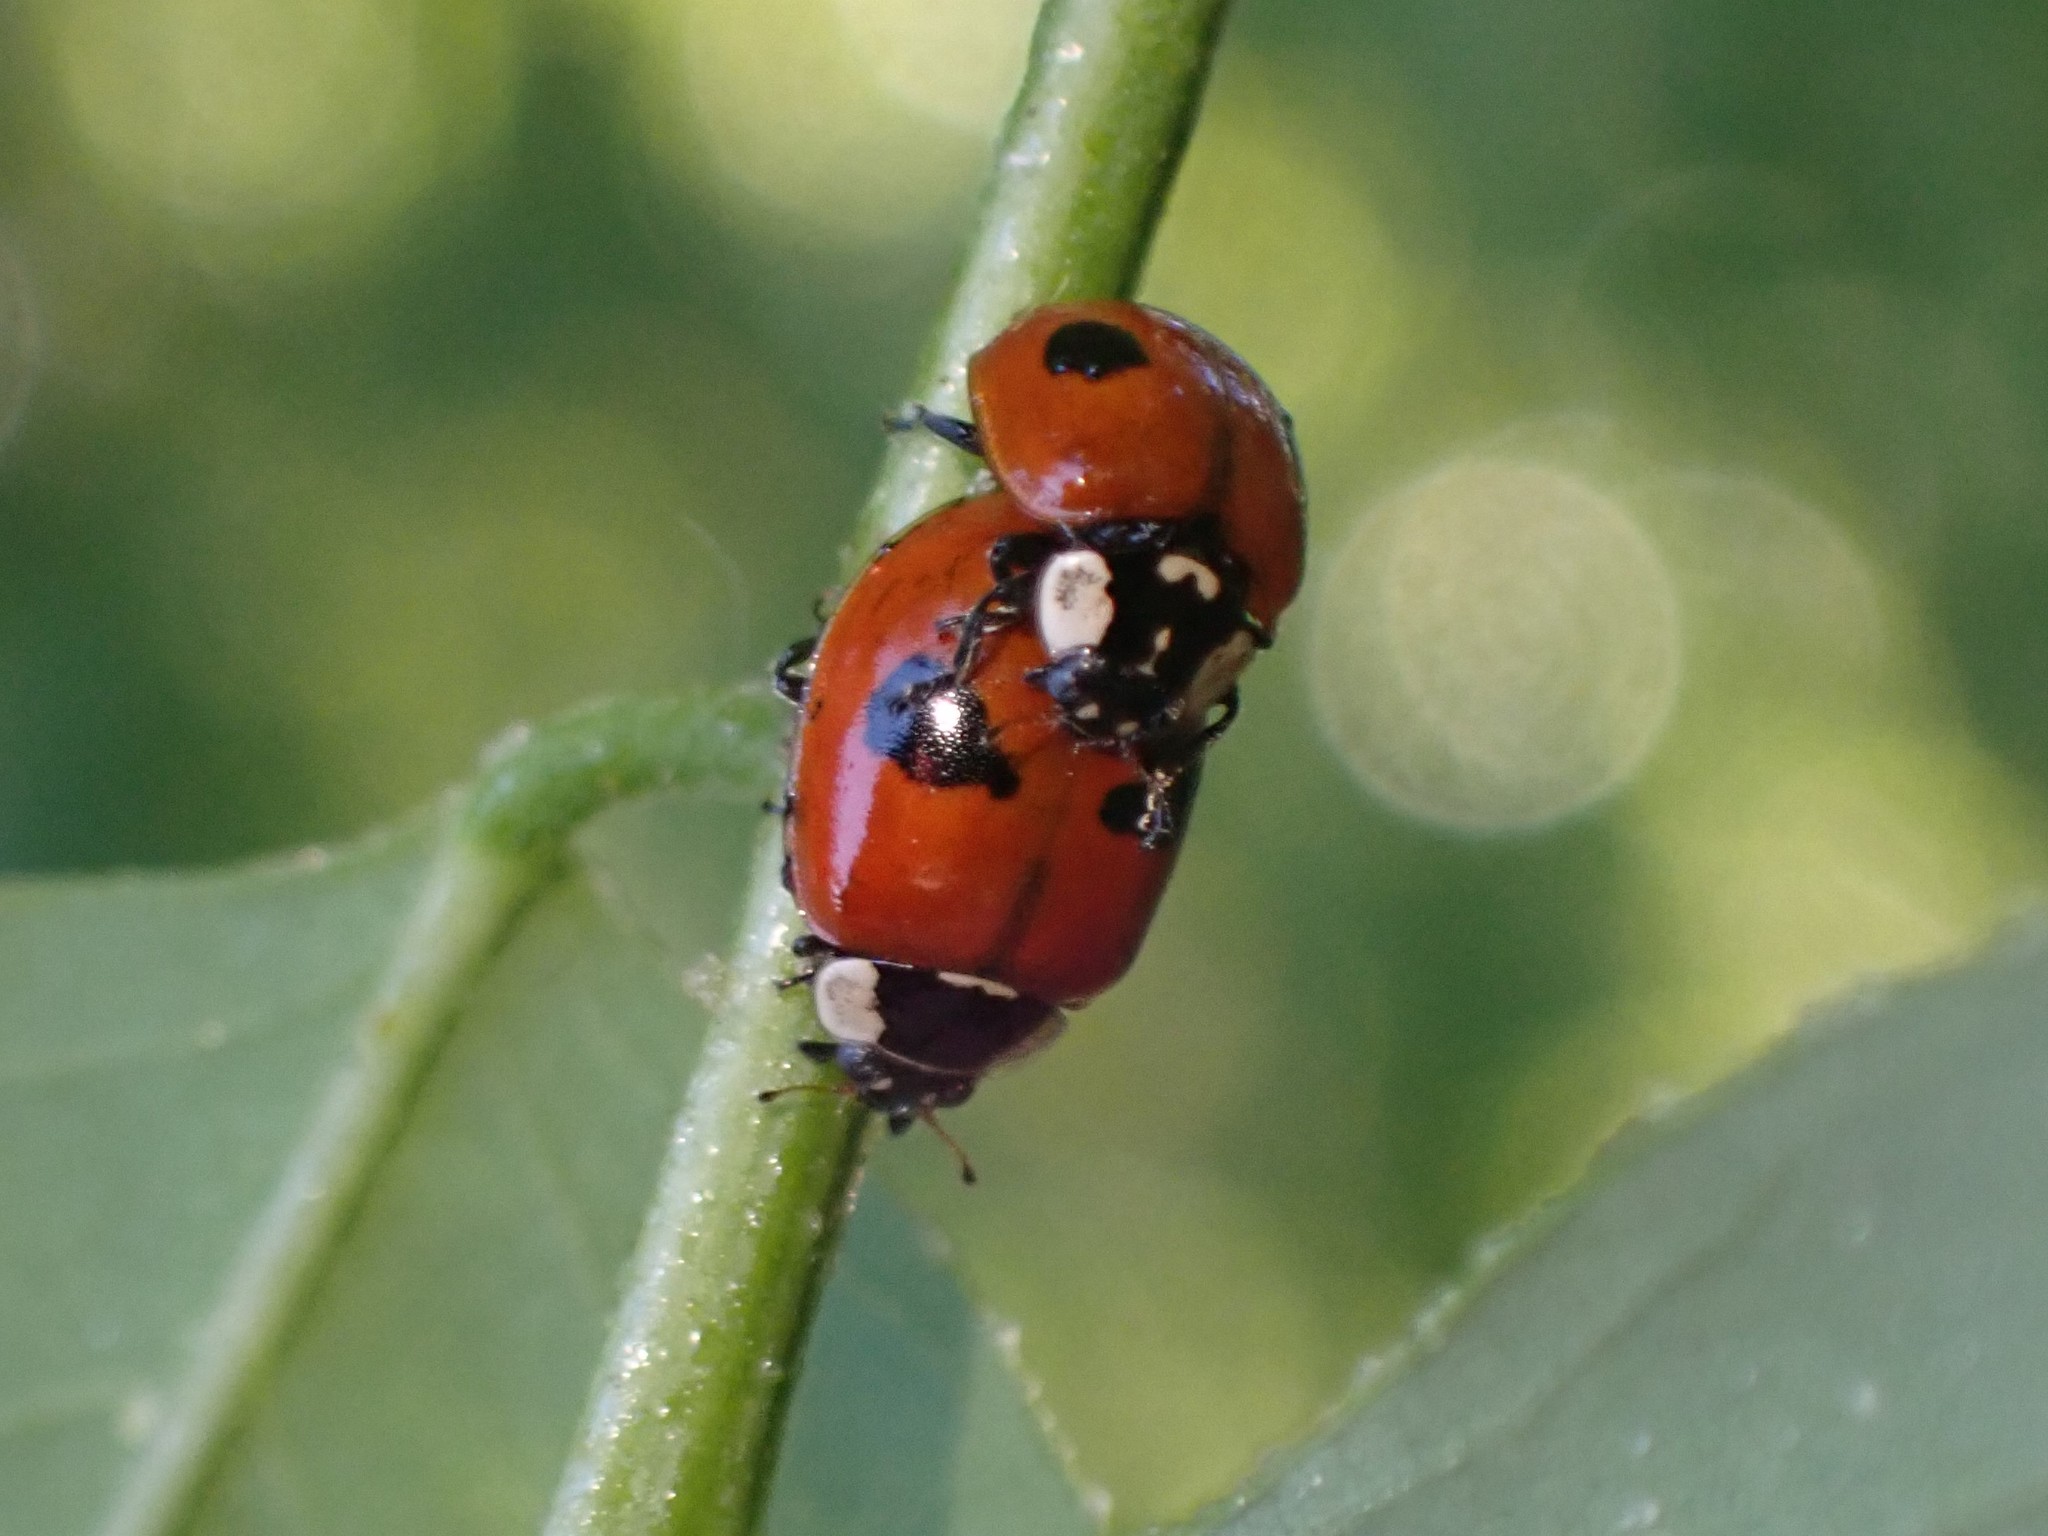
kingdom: Animalia
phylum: Arthropoda
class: Insecta
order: Coleoptera
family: Coccinellidae
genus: Adalia
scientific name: Adalia bipunctata
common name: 2-spot ladybird
